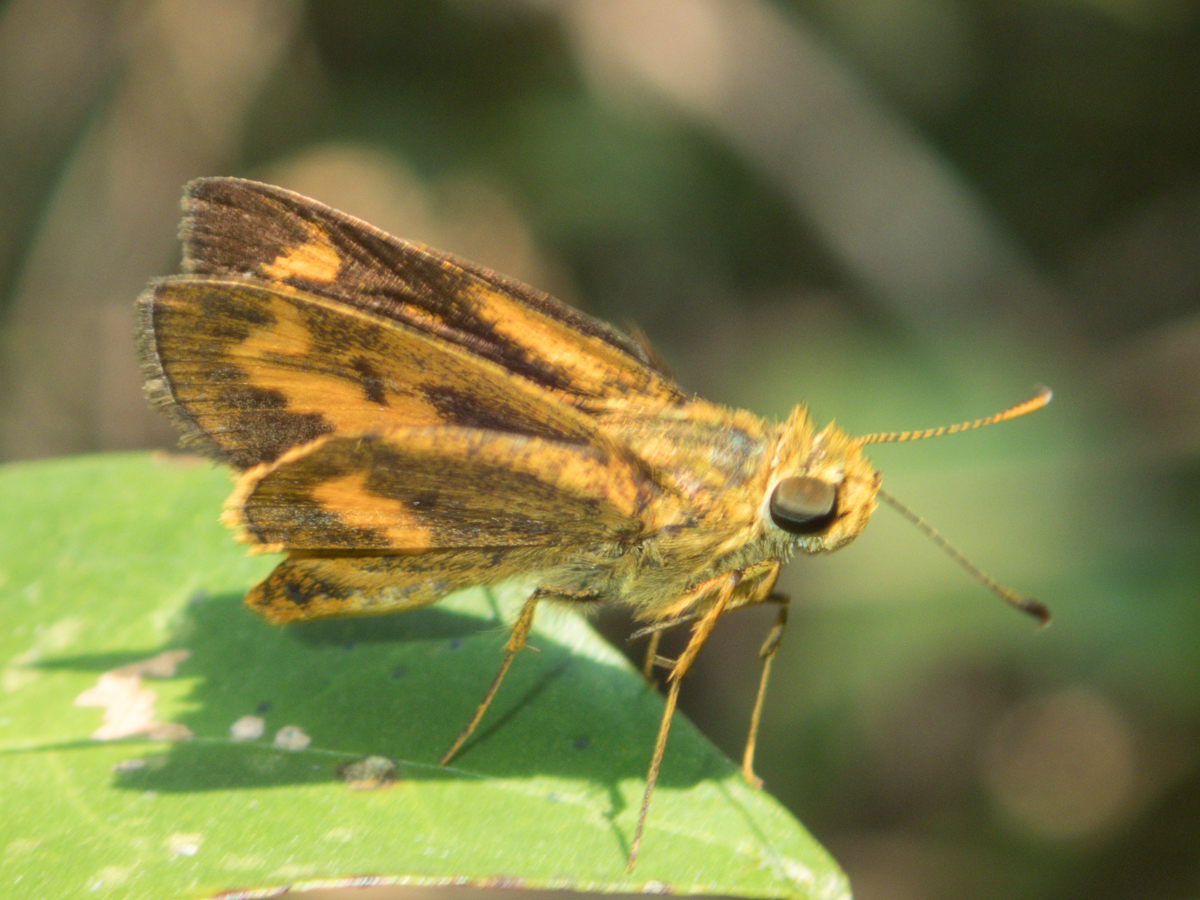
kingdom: Animalia
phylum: Arthropoda
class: Insecta
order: Lepidoptera
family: Hesperiidae
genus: Oriens
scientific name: Oriens gola
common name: Common dartlet
